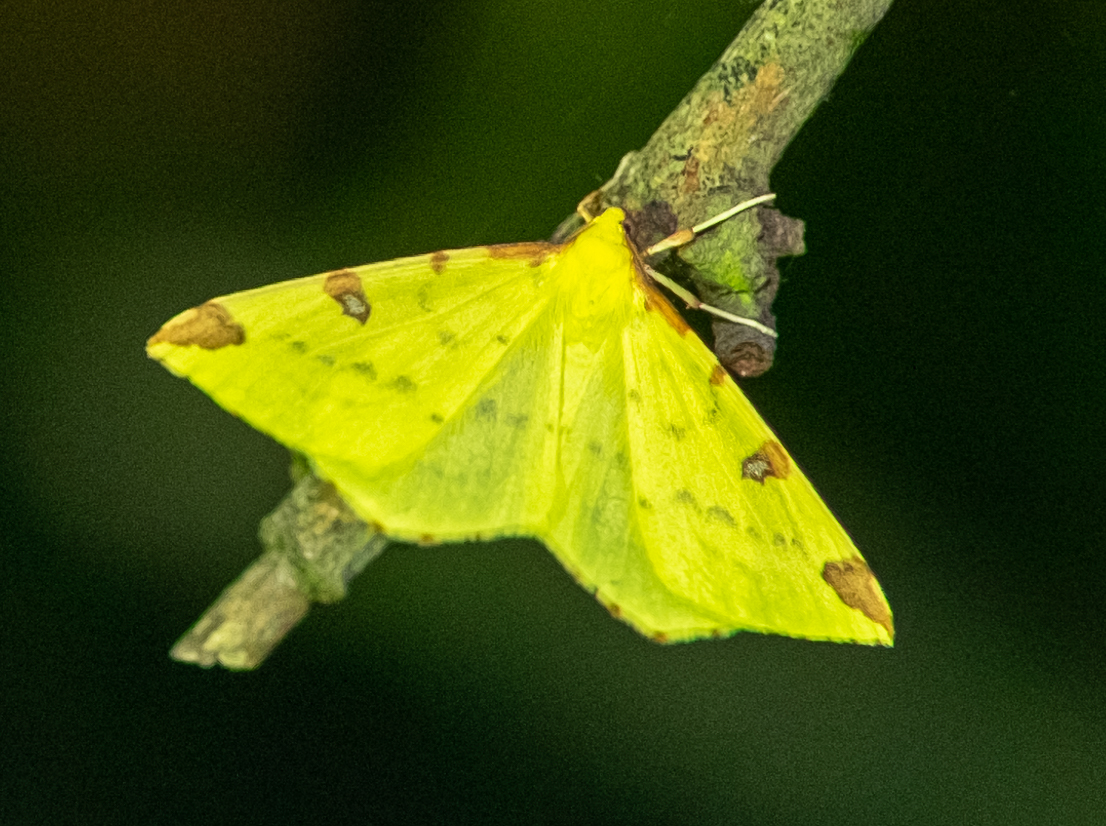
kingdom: Animalia
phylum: Arthropoda
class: Insecta
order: Lepidoptera
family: Geometridae
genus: Opisthograptis
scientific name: Opisthograptis luteolata
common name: Brimstone moth
